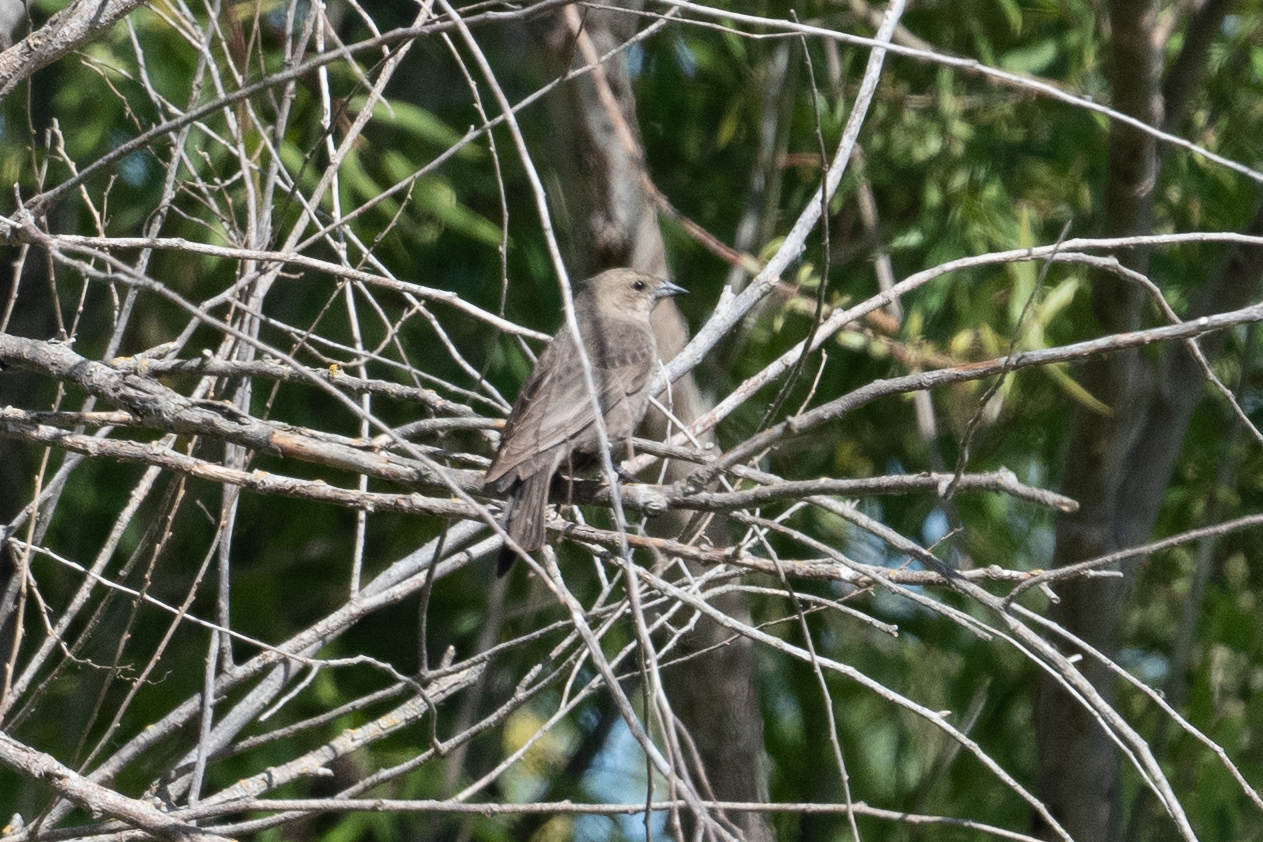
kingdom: Animalia
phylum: Chordata
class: Aves
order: Passeriformes
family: Icteridae
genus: Molothrus
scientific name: Molothrus ater
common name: Brown-headed cowbird
